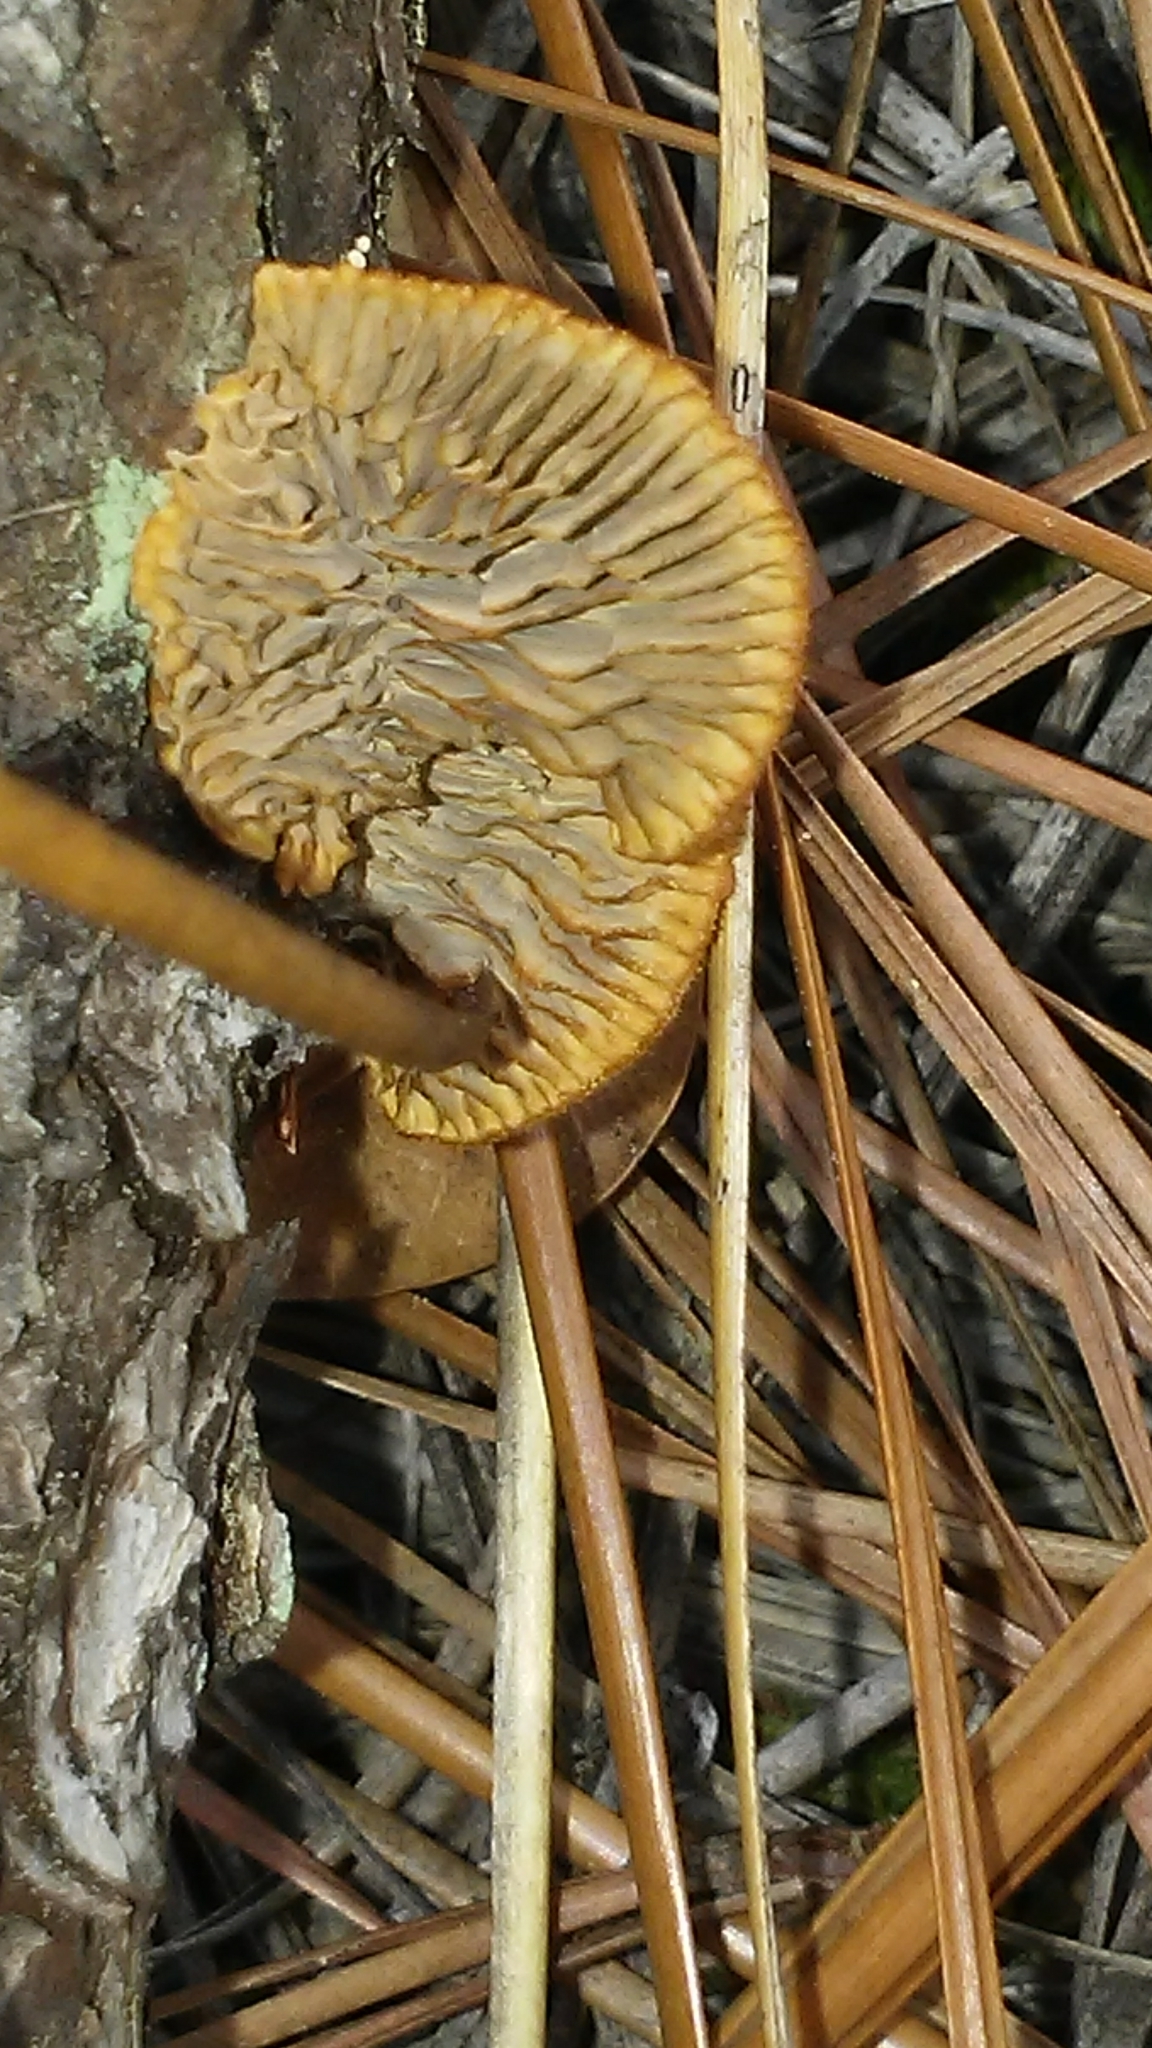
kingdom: Fungi
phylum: Basidiomycota
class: Agaricomycetes
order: Gloeophyllales
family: Gloeophyllaceae
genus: Gloeophyllum
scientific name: Gloeophyllum sepiarium
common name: Conifer mazegill
